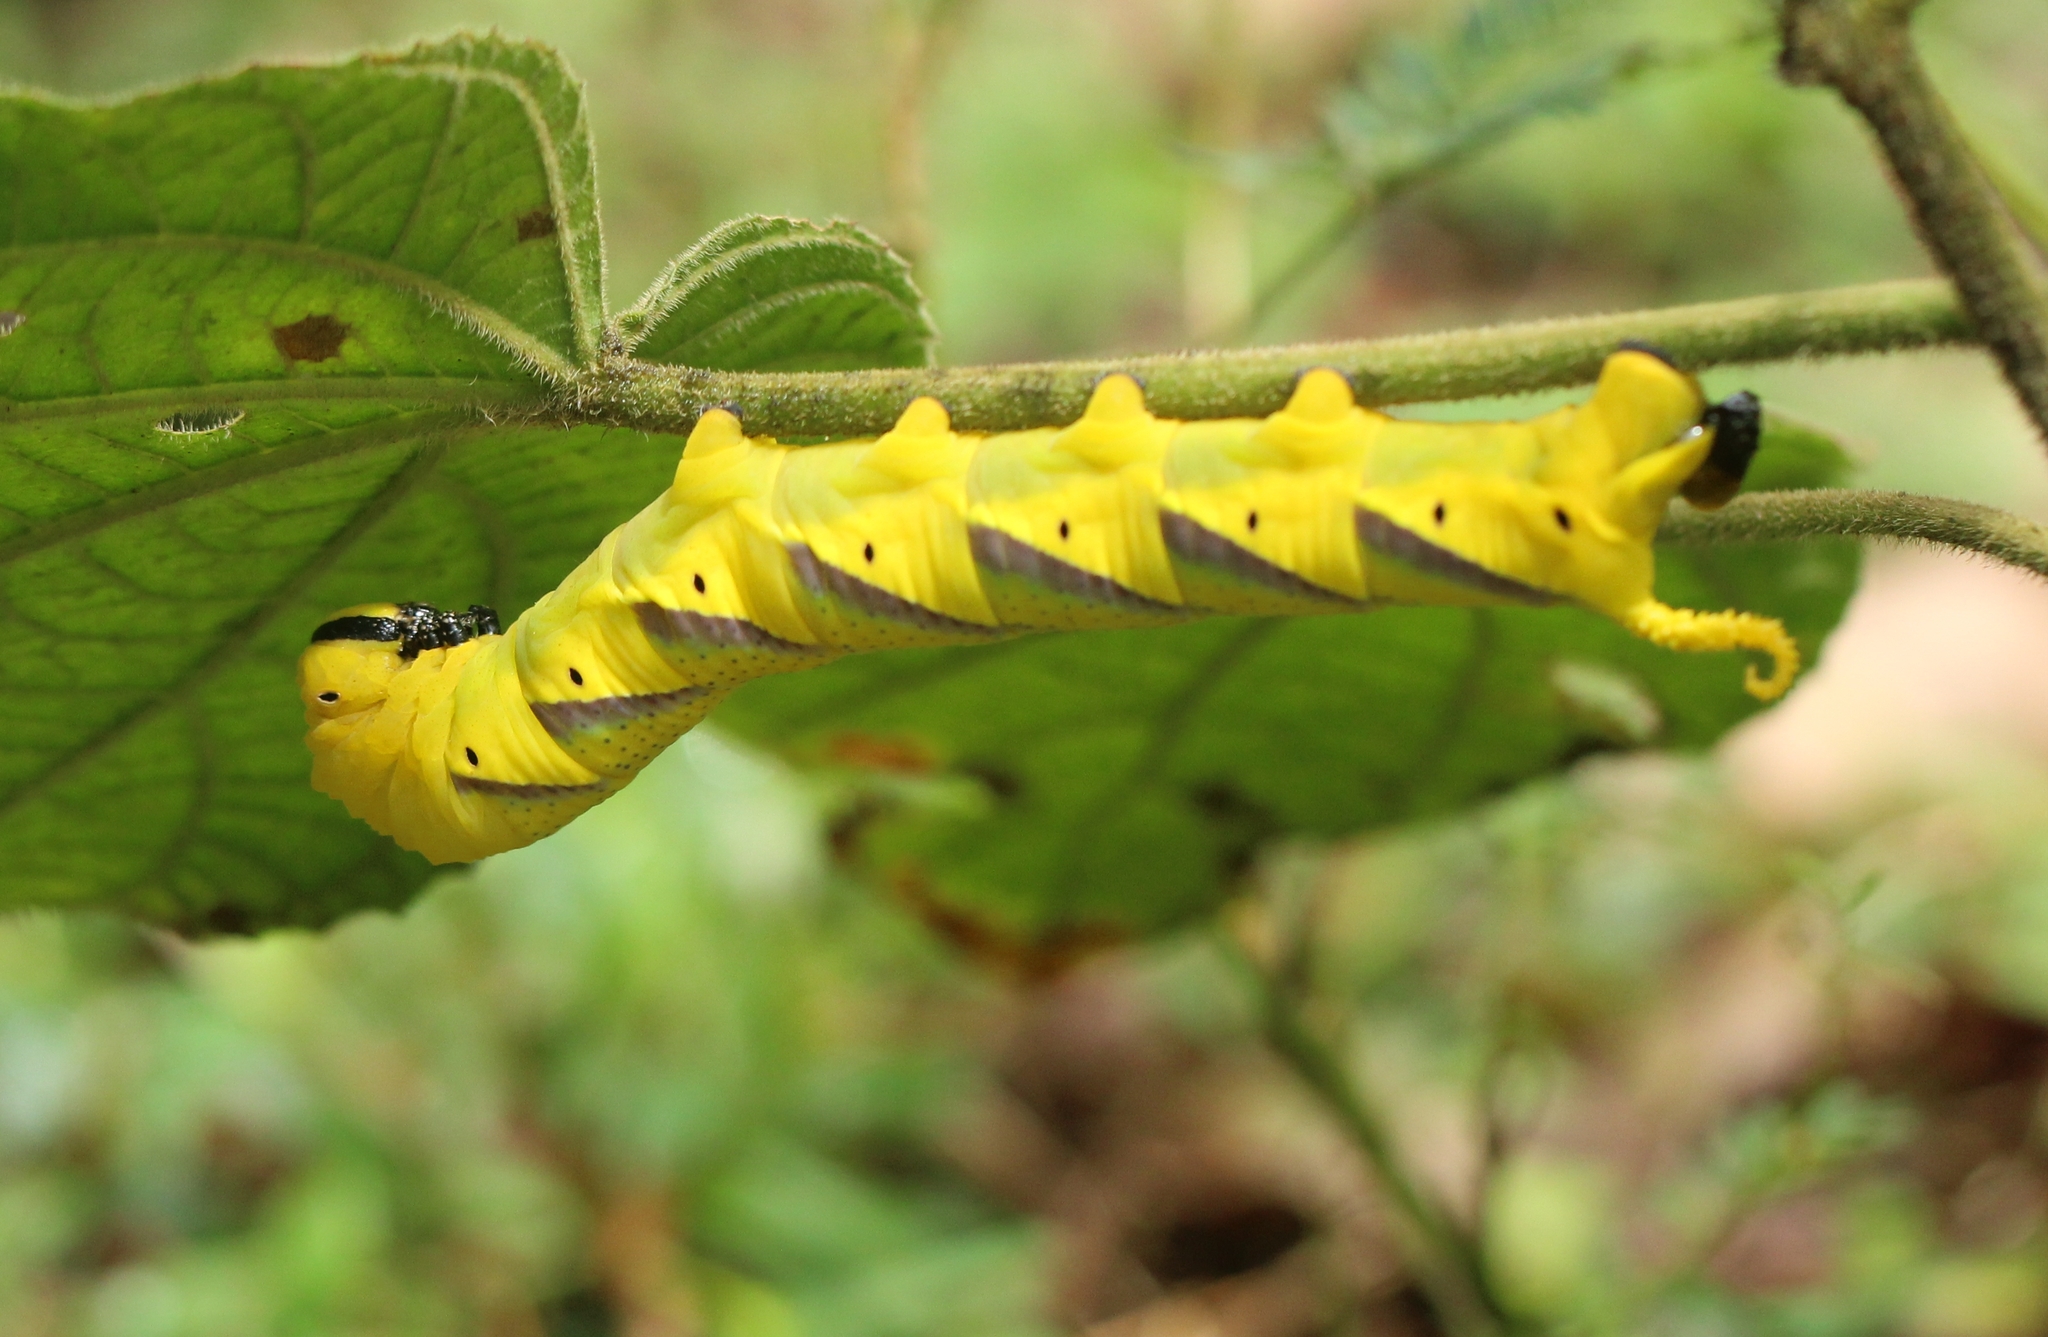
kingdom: Animalia
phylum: Arthropoda
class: Insecta
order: Lepidoptera
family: Sphingidae
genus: Acherontia
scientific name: Acherontia lachesis
